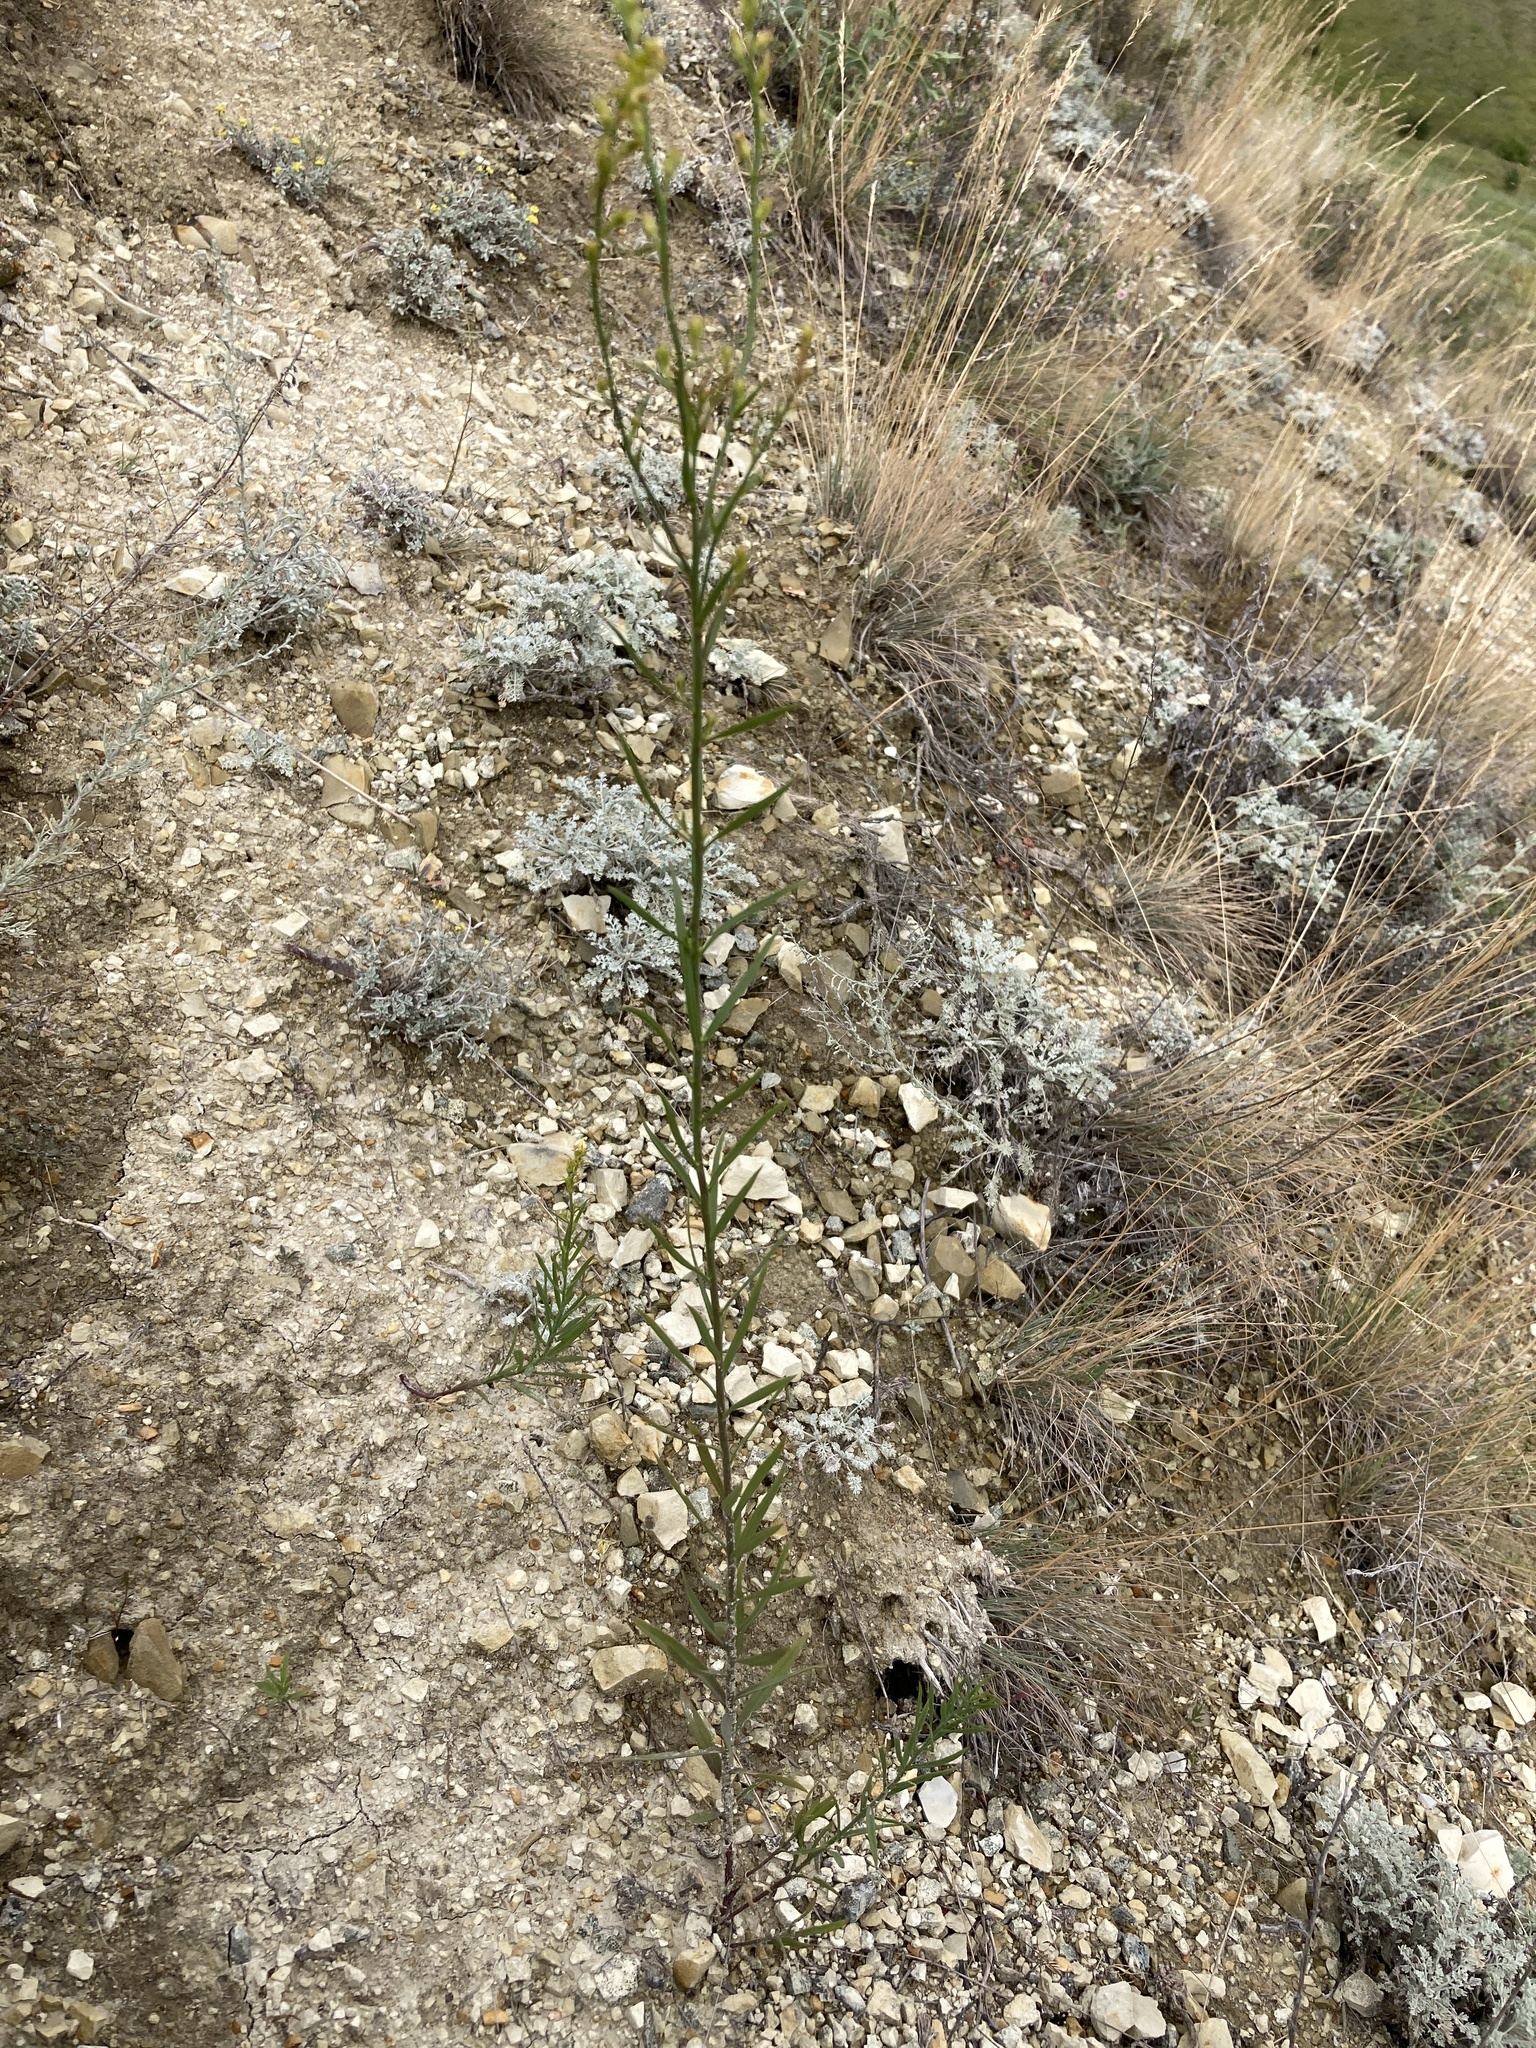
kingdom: Plantae
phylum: Tracheophyta
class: Magnoliopsida
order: Lamiales
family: Plantaginaceae
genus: Linaria
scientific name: Linaria vulgaris
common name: Butter and eggs
